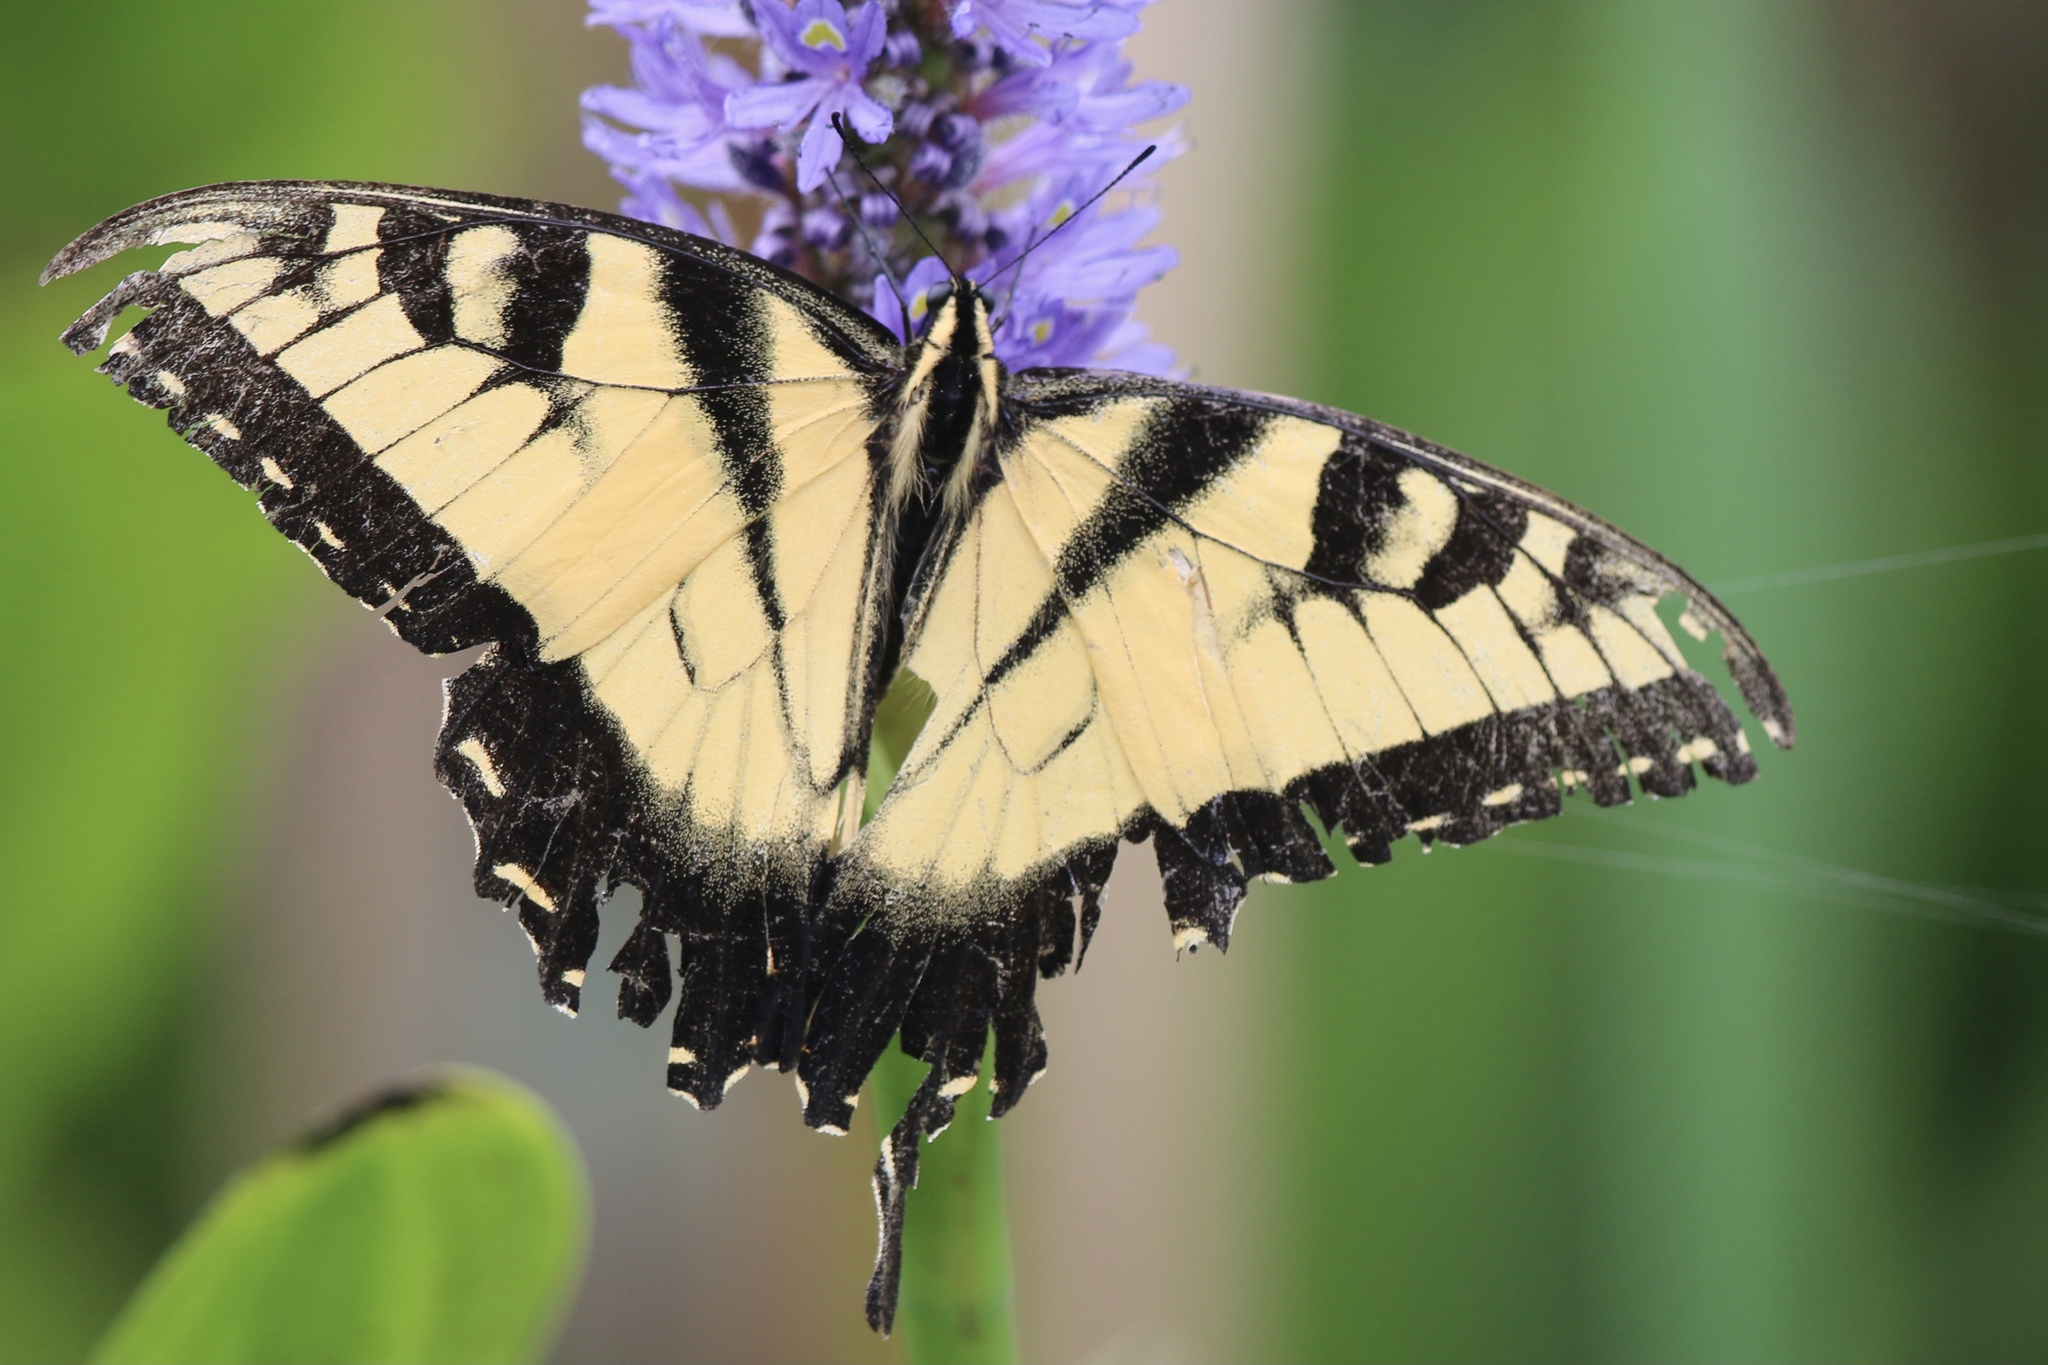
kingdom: Animalia
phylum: Arthropoda
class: Insecta
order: Lepidoptera
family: Papilionidae
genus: Papilio
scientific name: Papilio glaucus
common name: Tiger swallowtail
